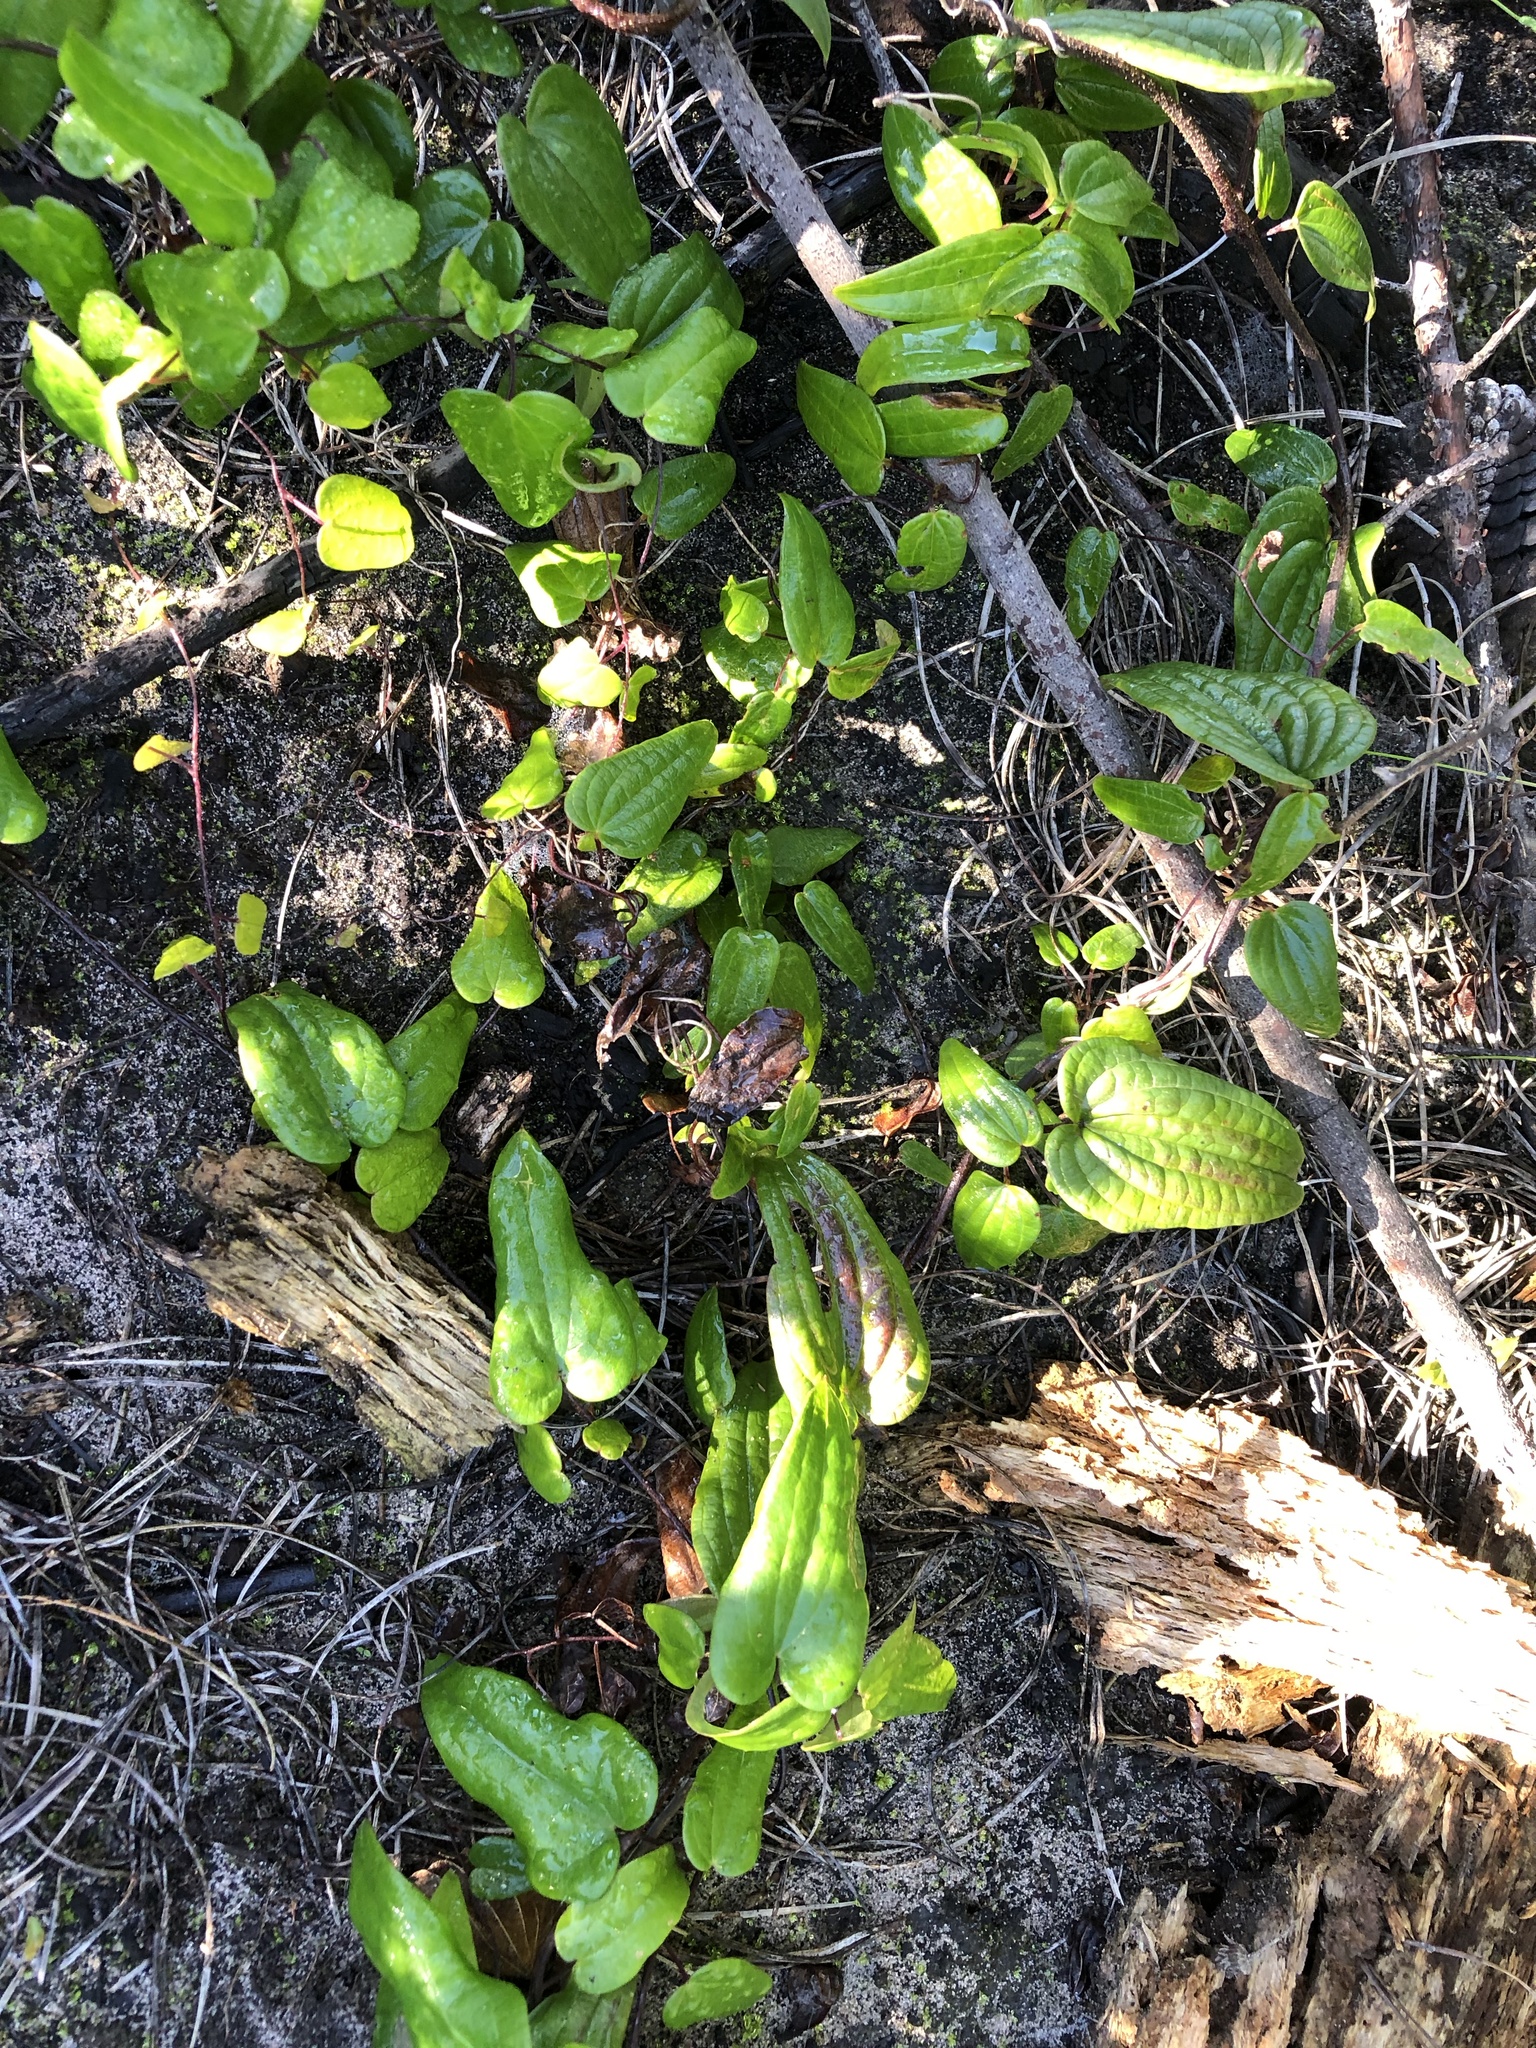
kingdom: Plantae
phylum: Tracheophyta
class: Liliopsida
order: Dioscoreales
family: Dioscoreaceae
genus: Dioscorea
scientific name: Dioscorea burchellii
